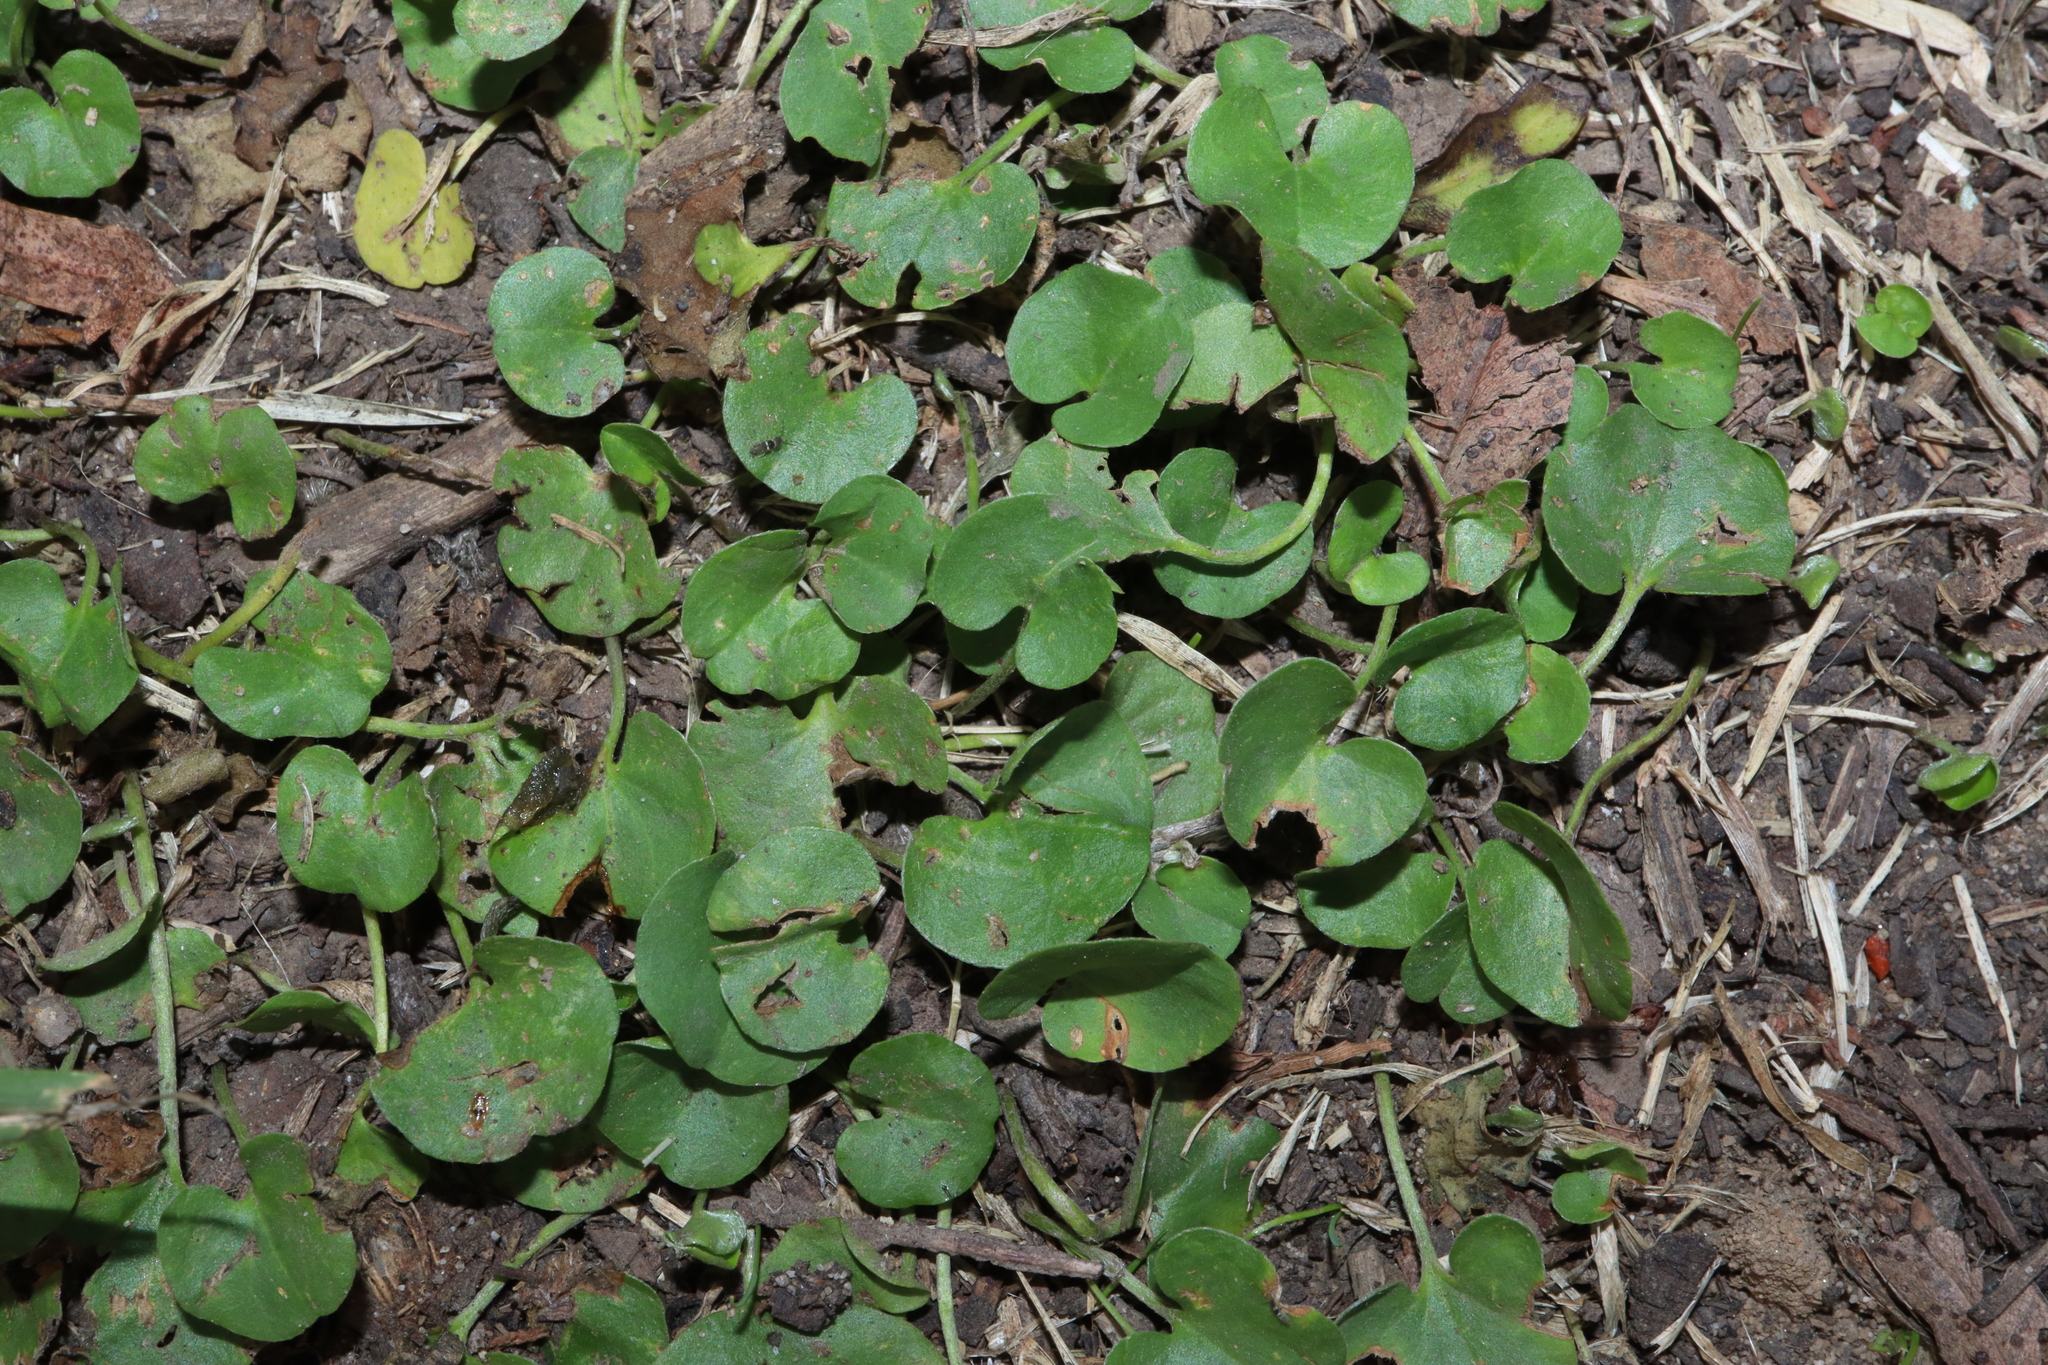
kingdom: Plantae
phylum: Tracheophyta
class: Magnoliopsida
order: Solanales
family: Convolvulaceae
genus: Dichondra
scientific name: Dichondra repens
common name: Kidneyweed
